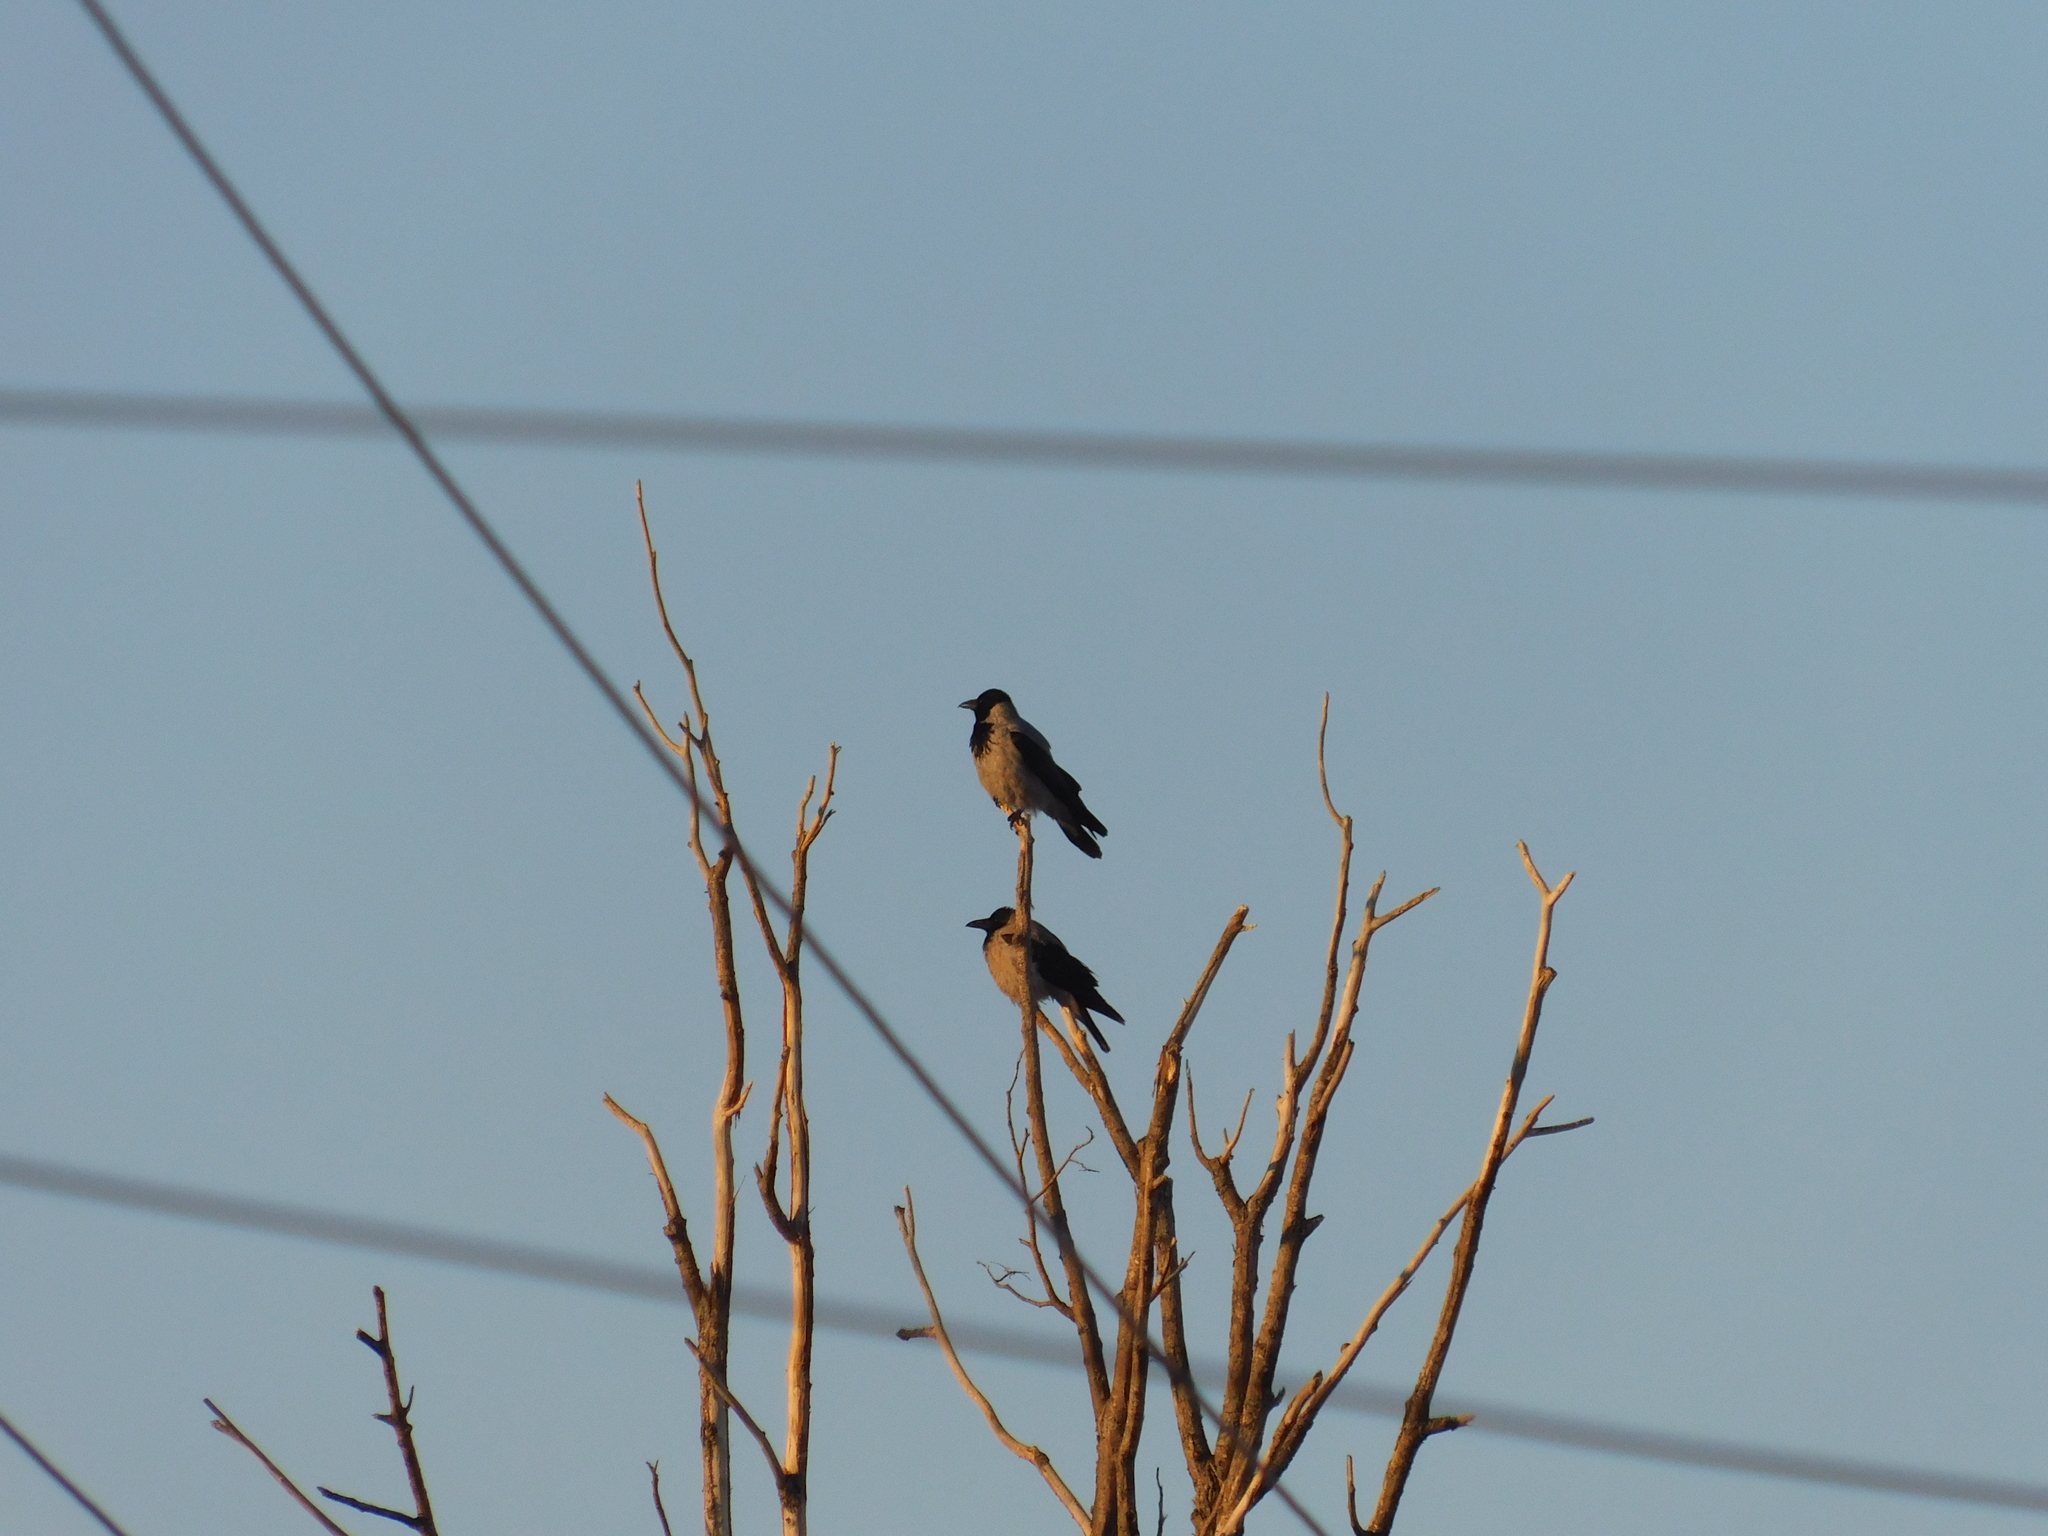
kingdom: Animalia
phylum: Chordata
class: Aves
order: Passeriformes
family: Corvidae
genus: Corvus
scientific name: Corvus cornix
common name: Hooded crow
